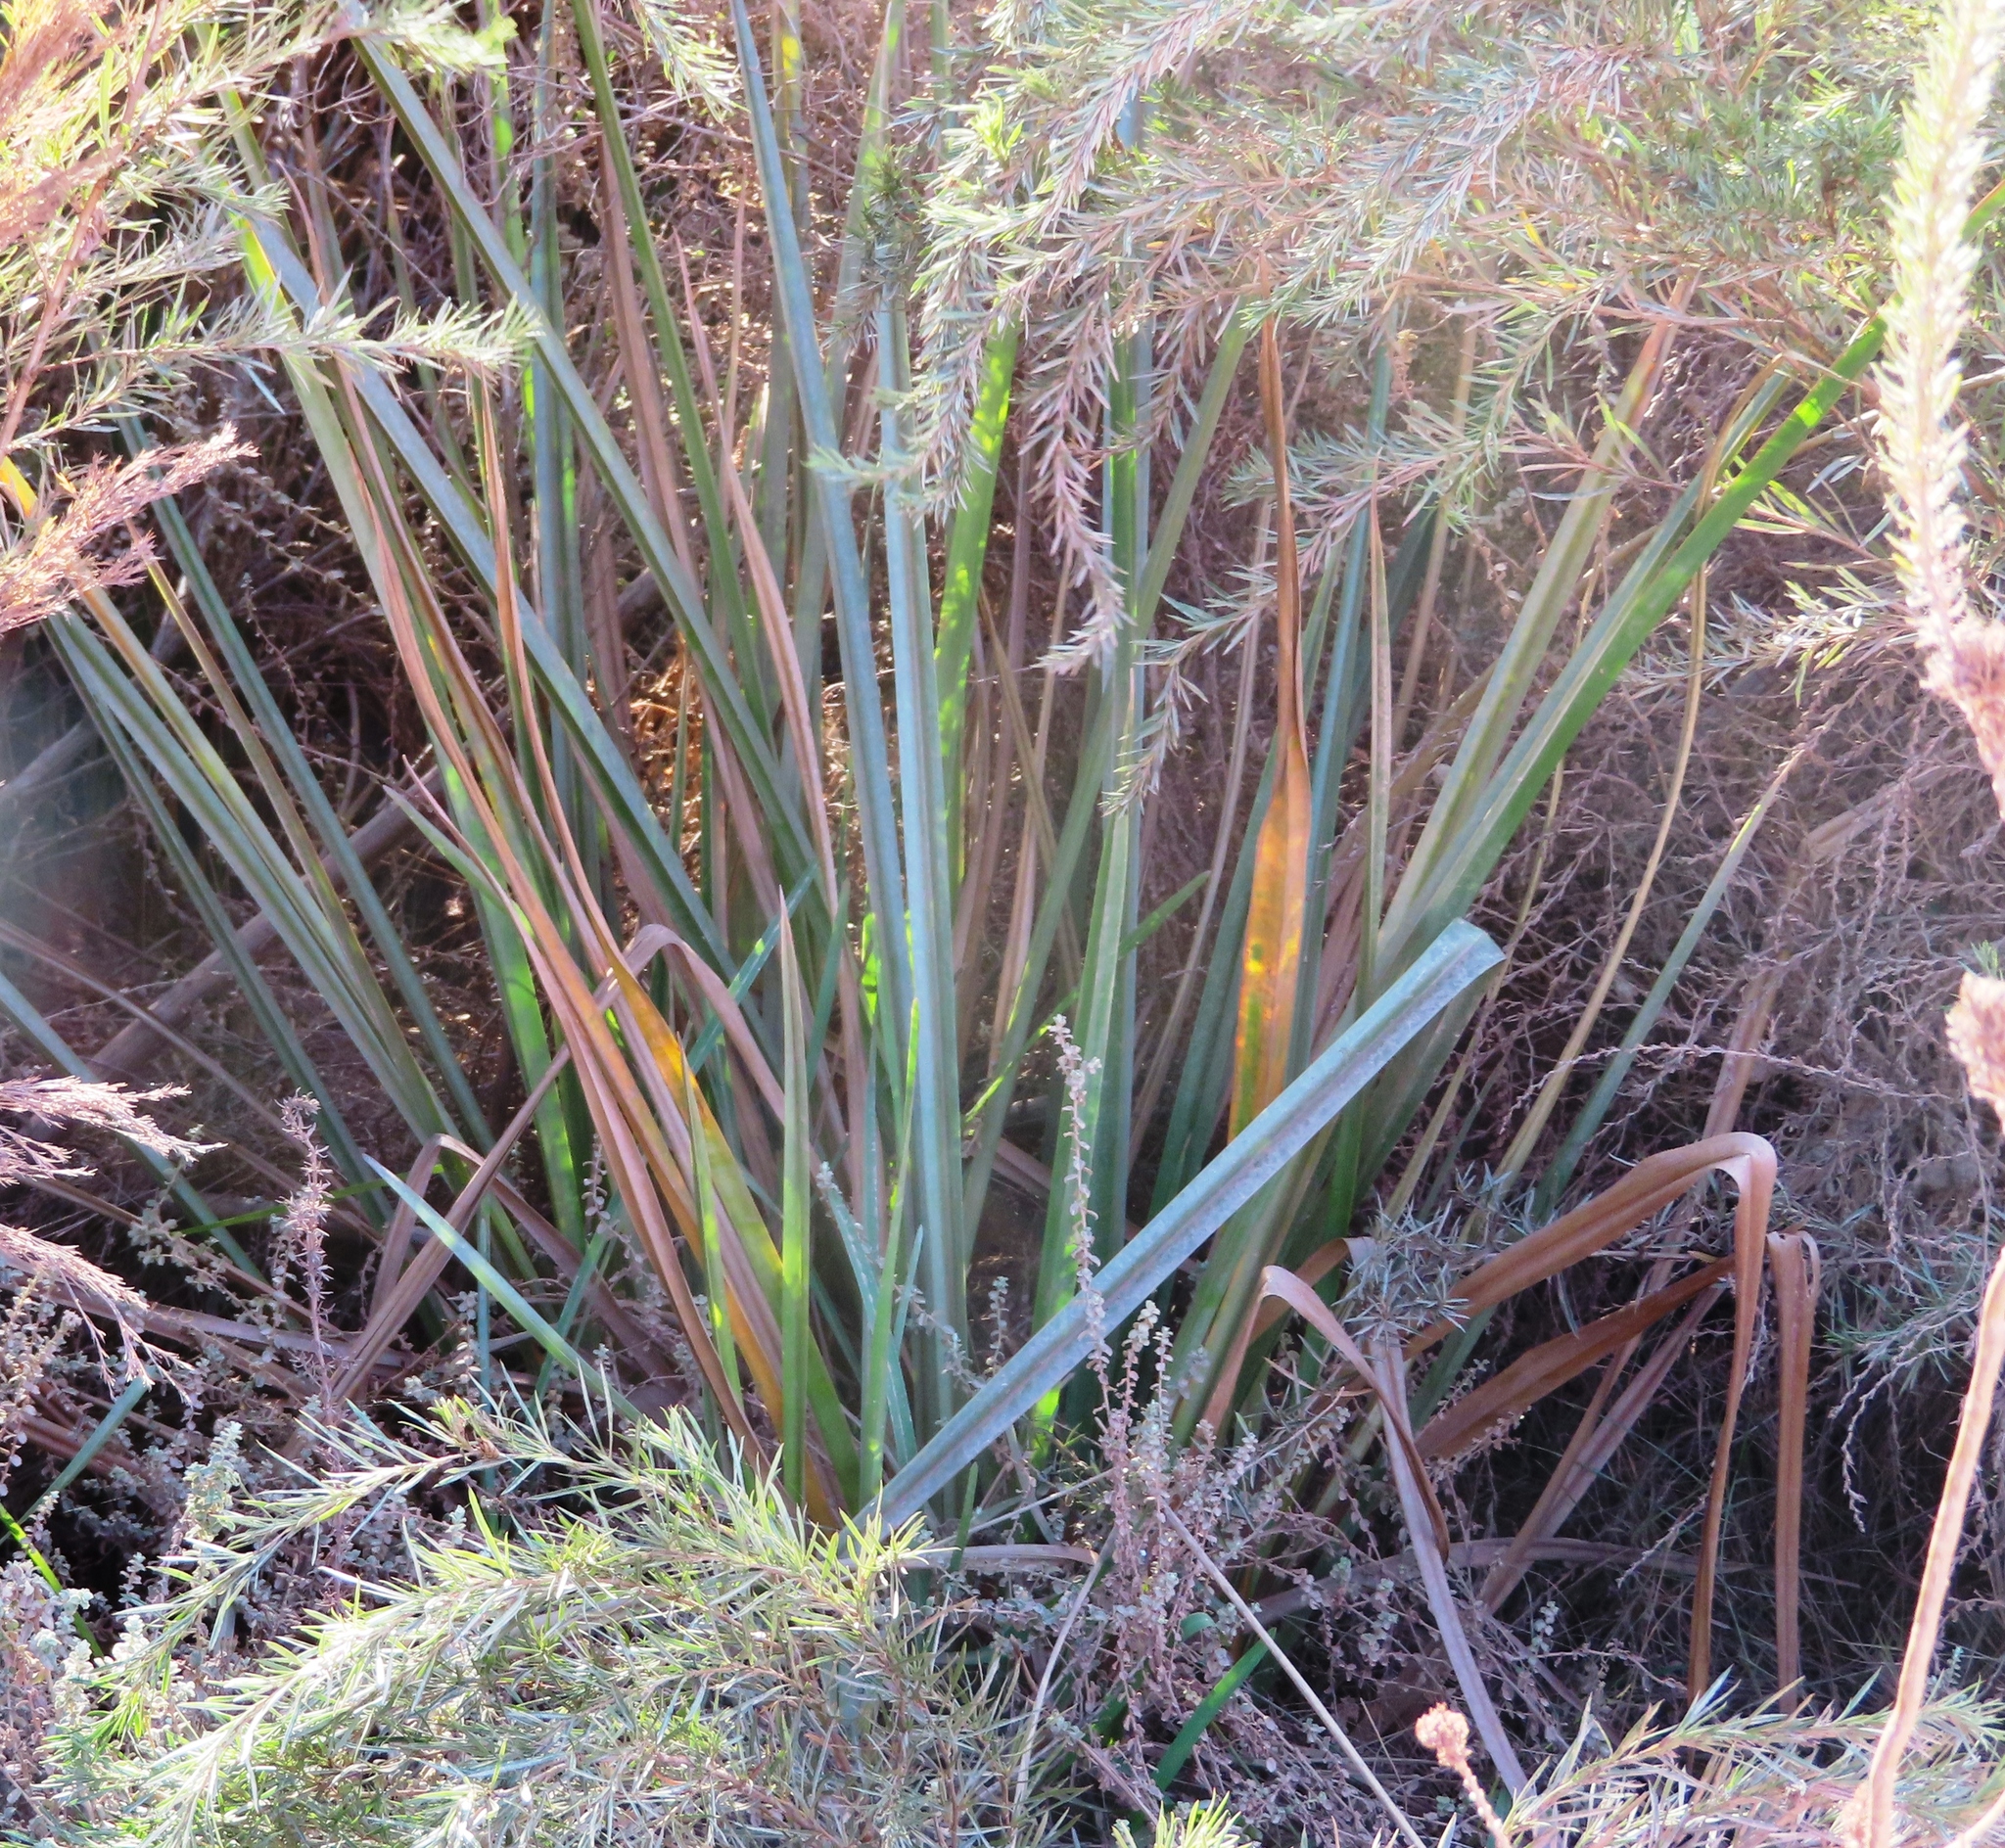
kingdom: Plantae
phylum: Tracheophyta
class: Liliopsida
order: Poales
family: Thurniaceae
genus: Prionium
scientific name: Prionium serratum
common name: Palmiet
